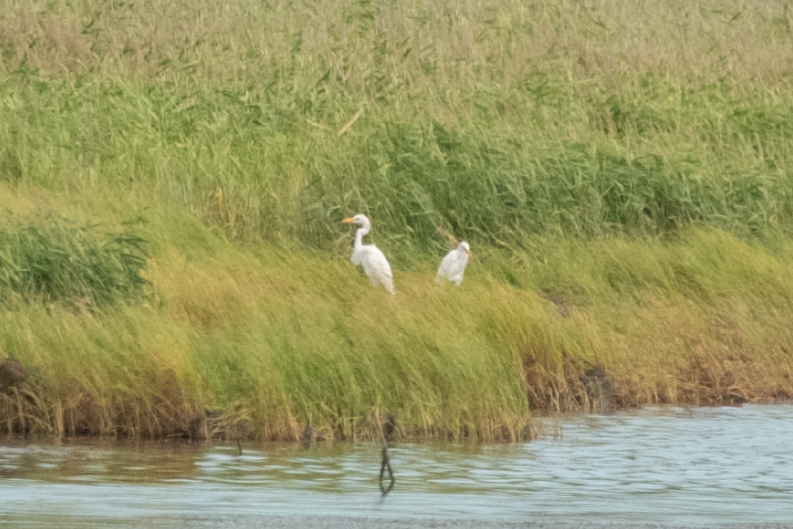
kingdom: Animalia
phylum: Chordata
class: Aves
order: Pelecaniformes
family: Ardeidae
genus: Ardea
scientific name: Ardea alba
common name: Great egret
